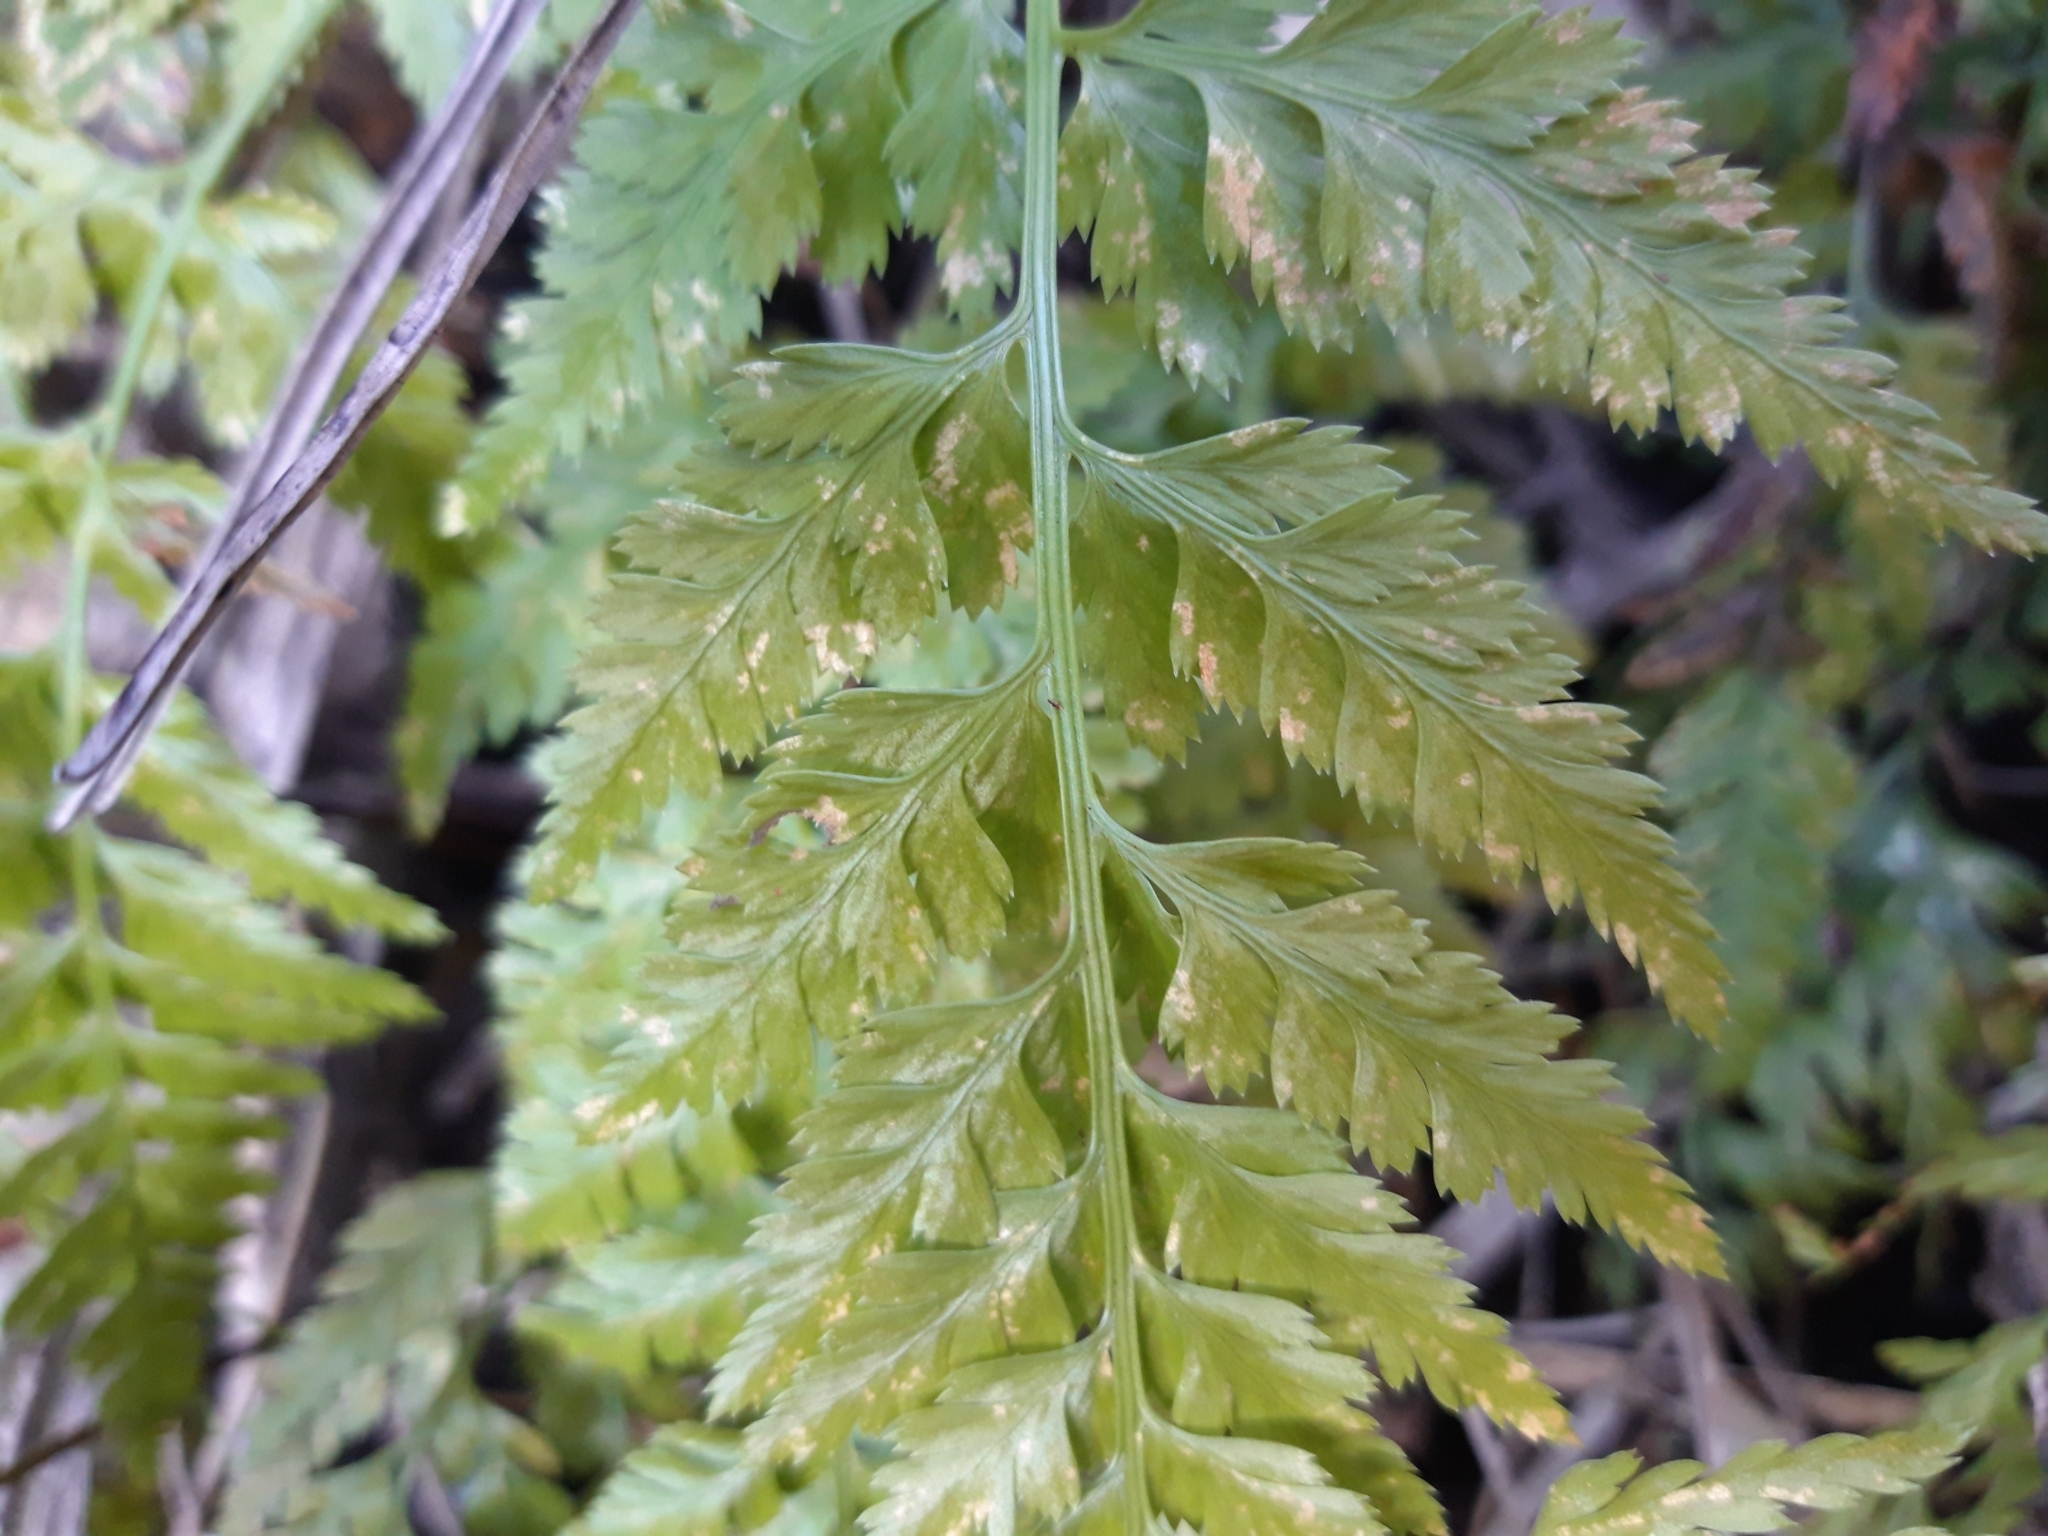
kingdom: Plantae
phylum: Tracheophyta
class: Polypodiopsida
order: Polypodiales
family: Aspleniaceae
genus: Asplenium
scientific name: Asplenium onopteris
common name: Irish spleenwort
